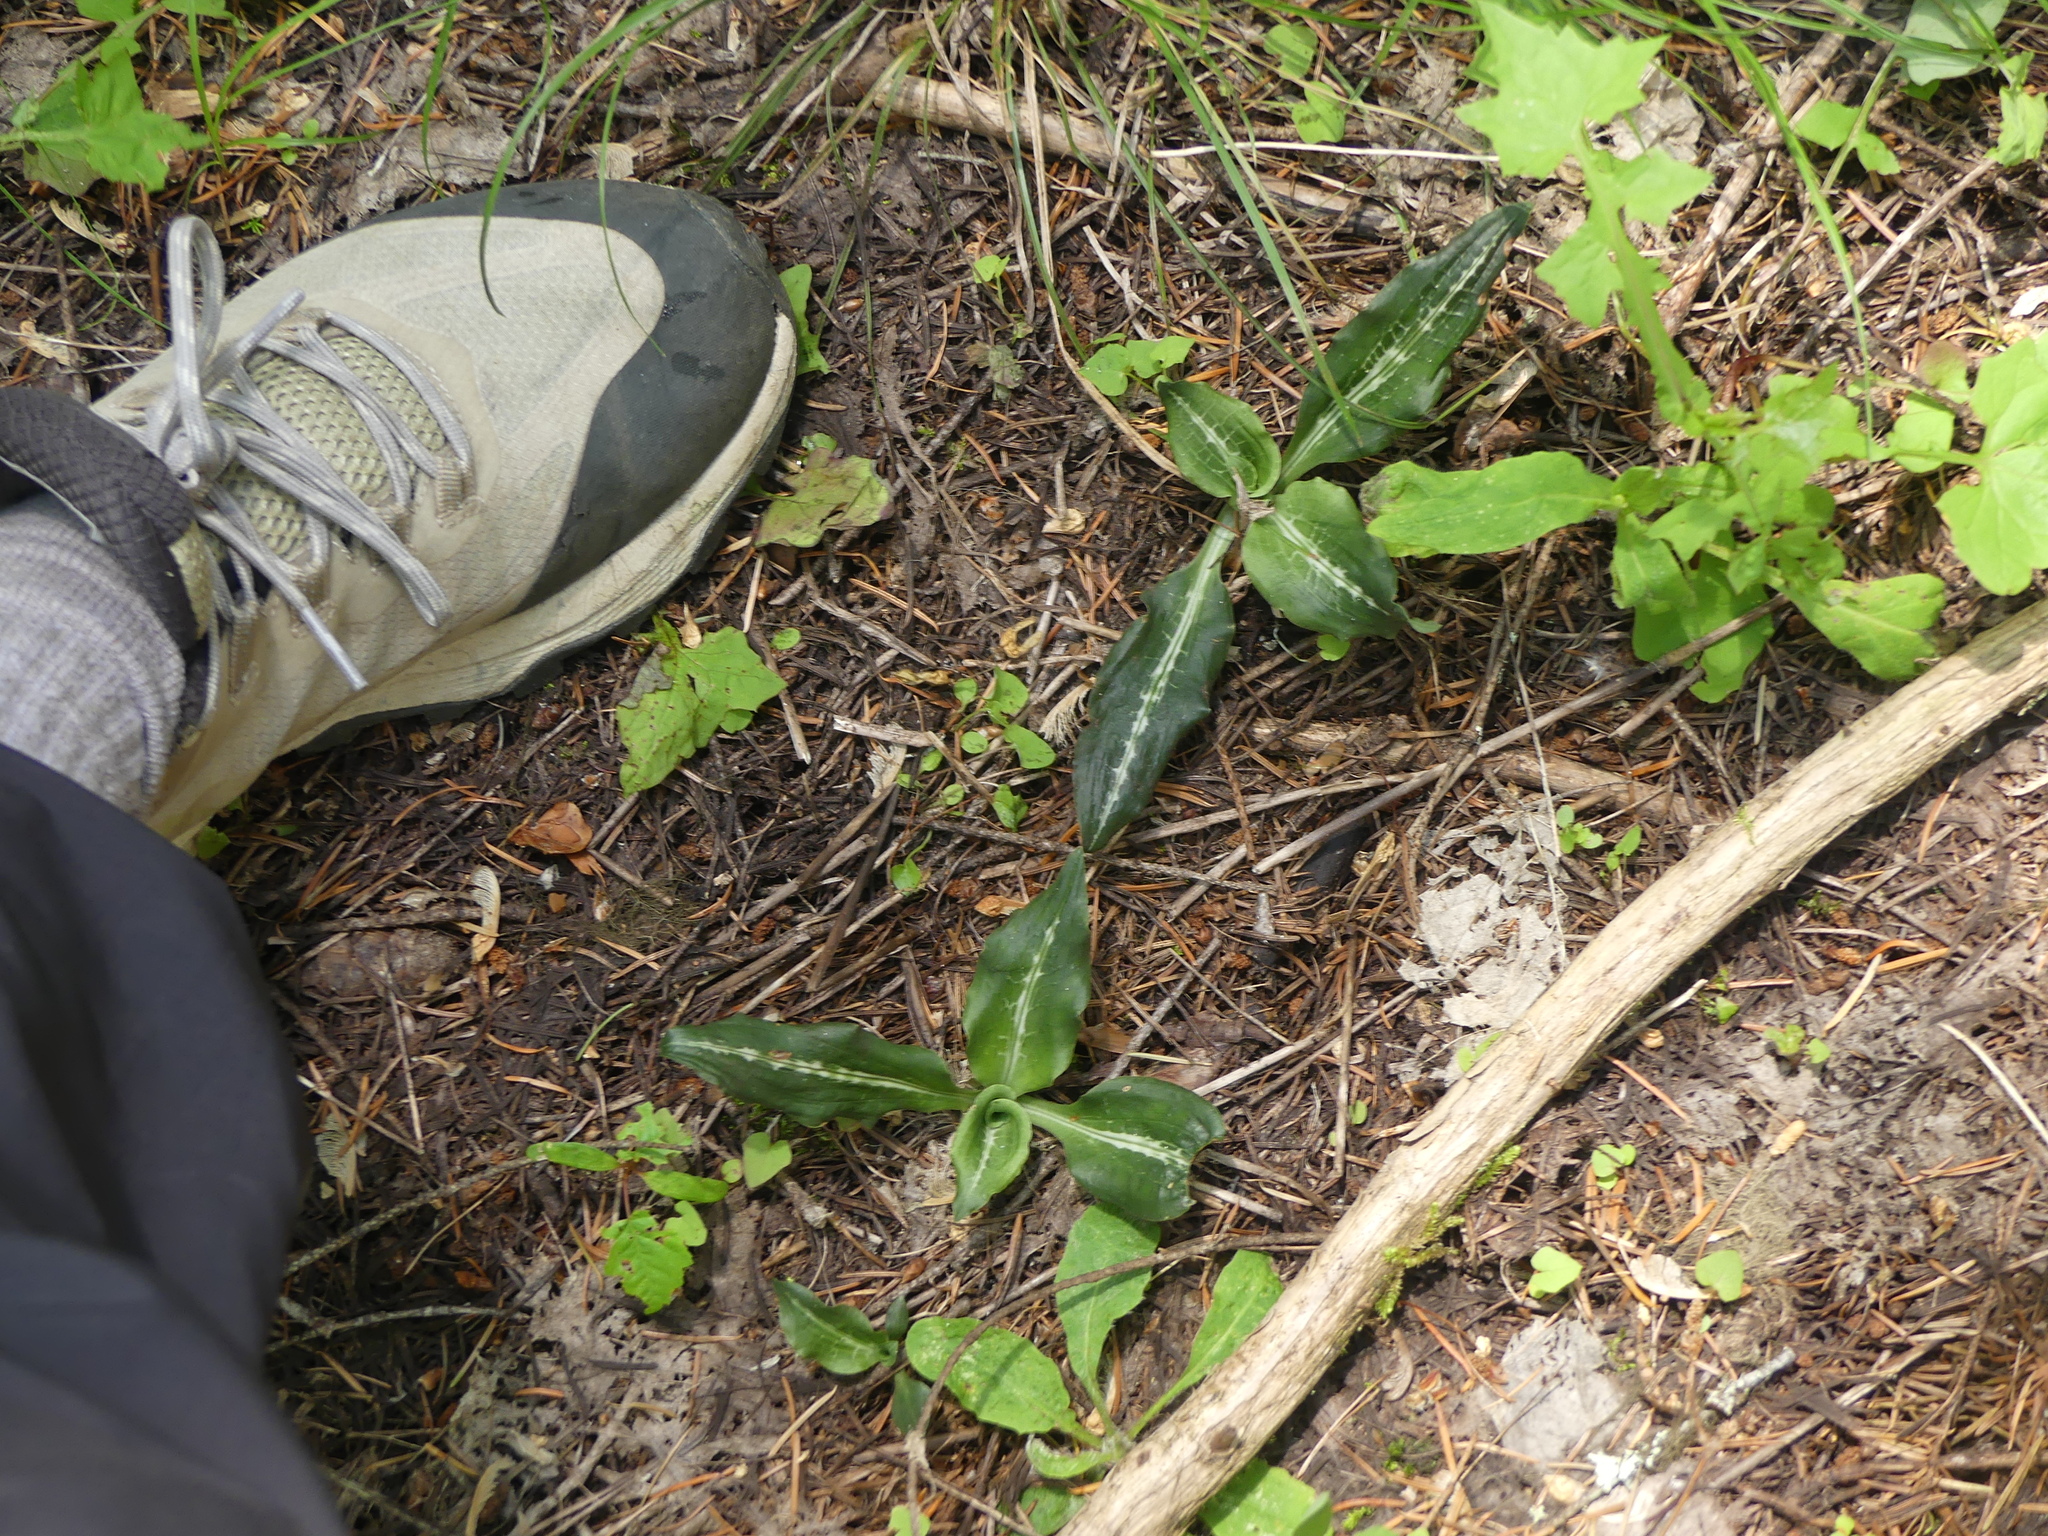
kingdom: Plantae
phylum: Tracheophyta
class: Liliopsida
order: Asparagales
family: Orchidaceae
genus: Goodyera
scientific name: Goodyera oblongifolia
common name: Giant rattlesnake-plantain
